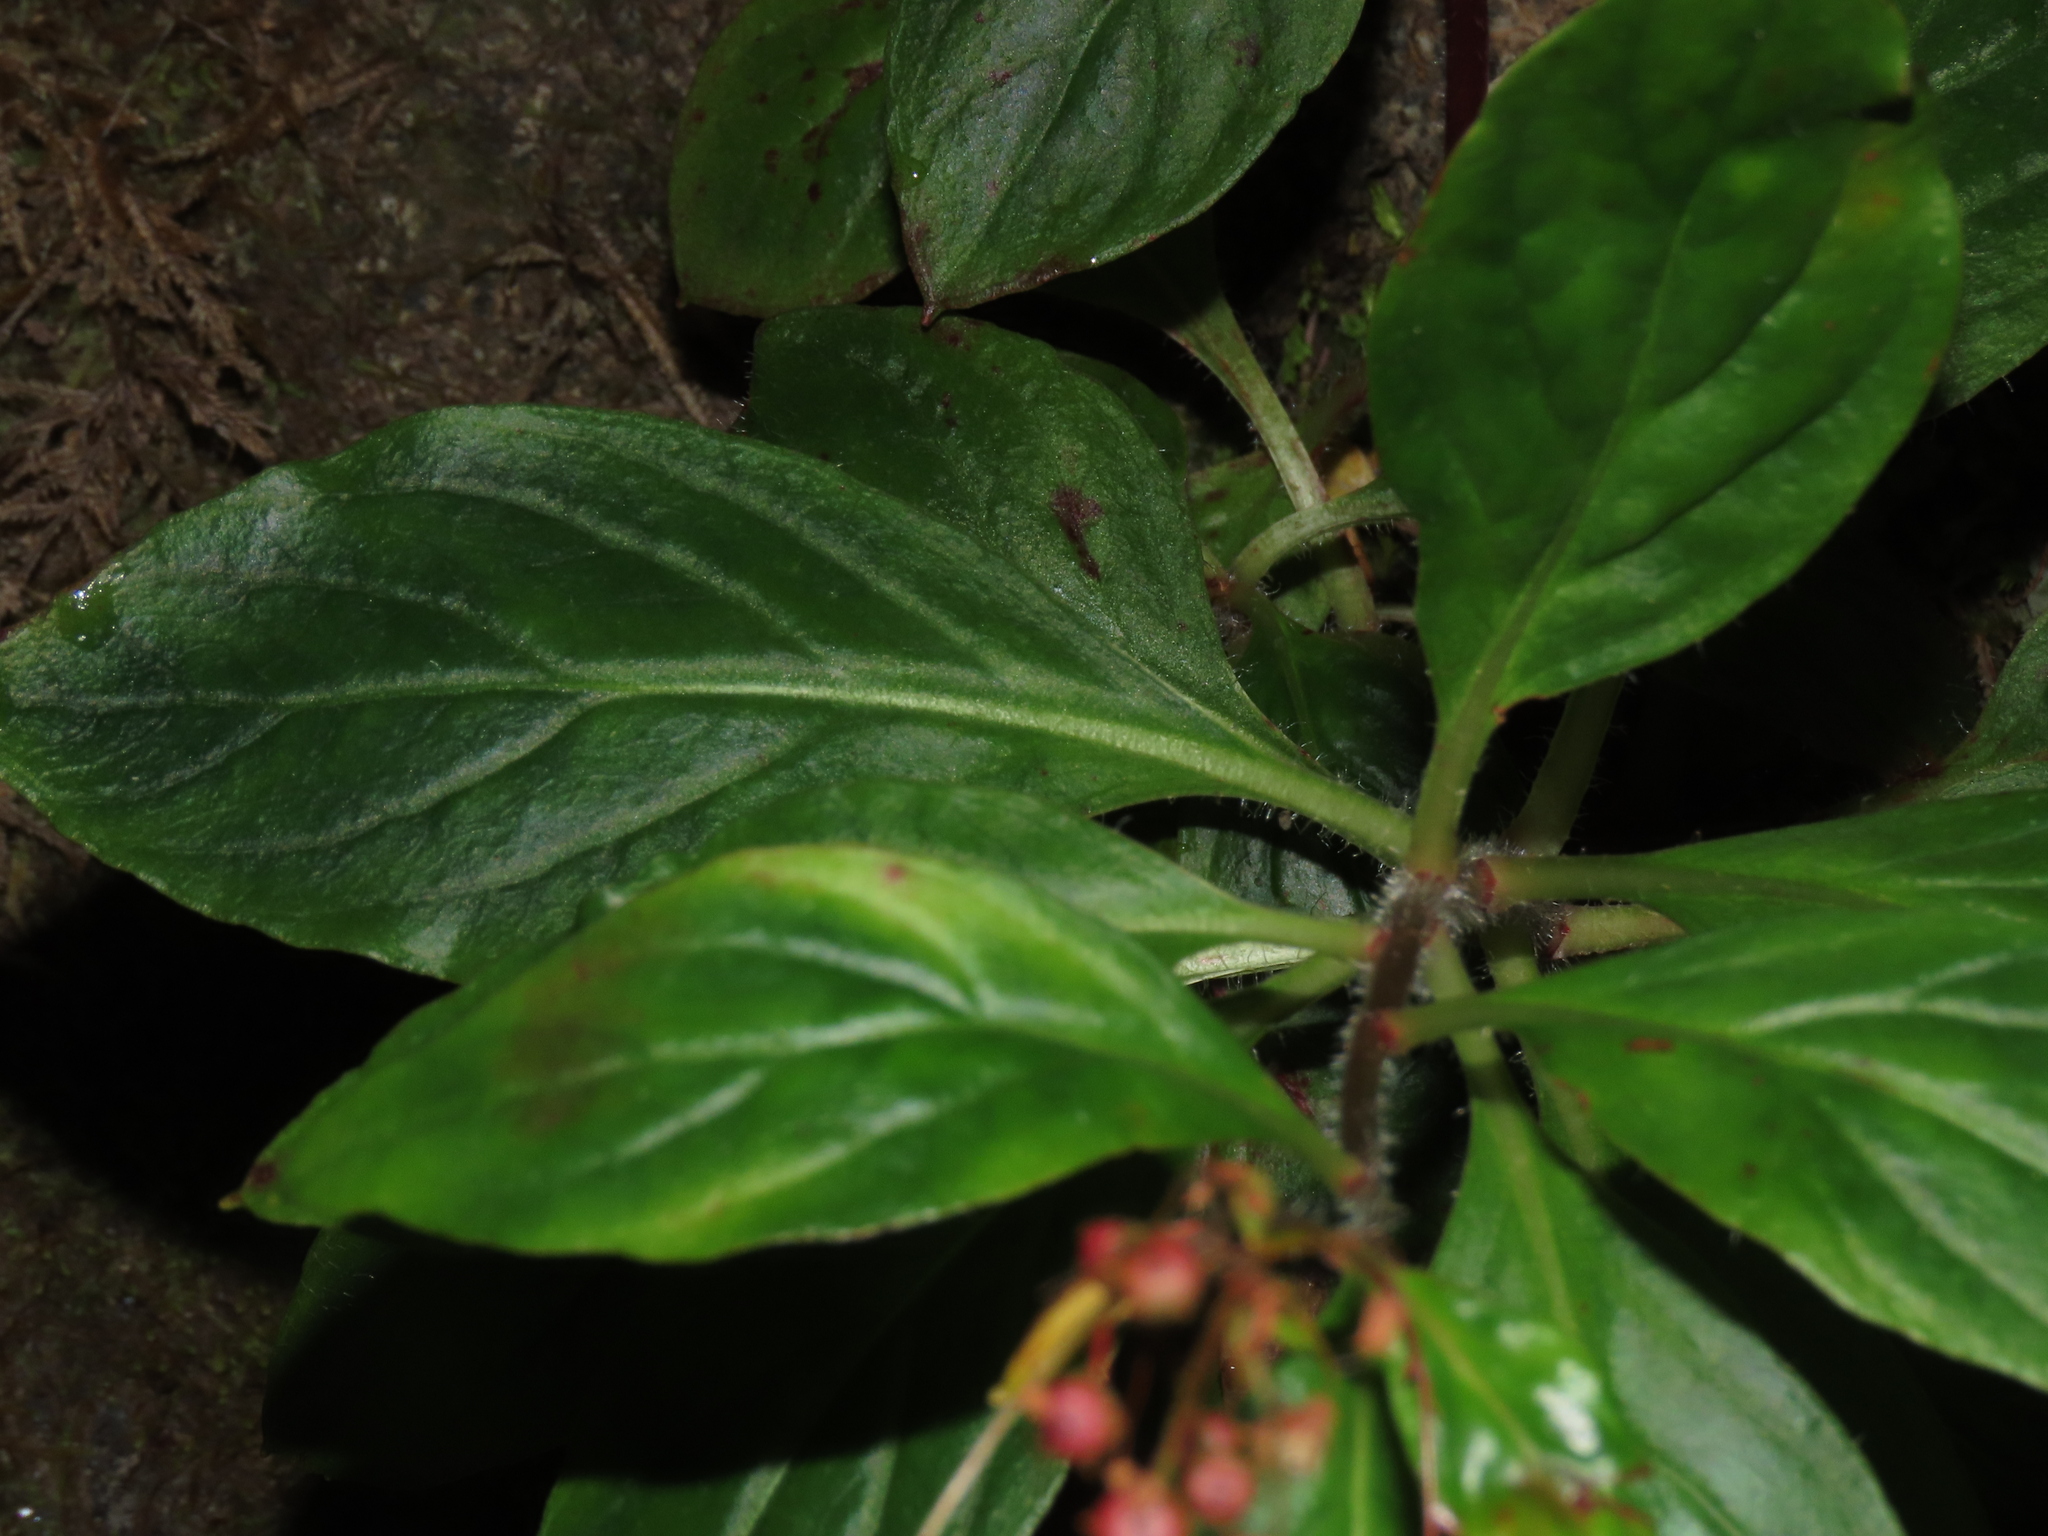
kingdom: Plantae
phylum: Tracheophyta
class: Magnoliopsida
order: Ericales
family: Primulaceae
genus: Lysimachia
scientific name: Lysimachia sertulata
